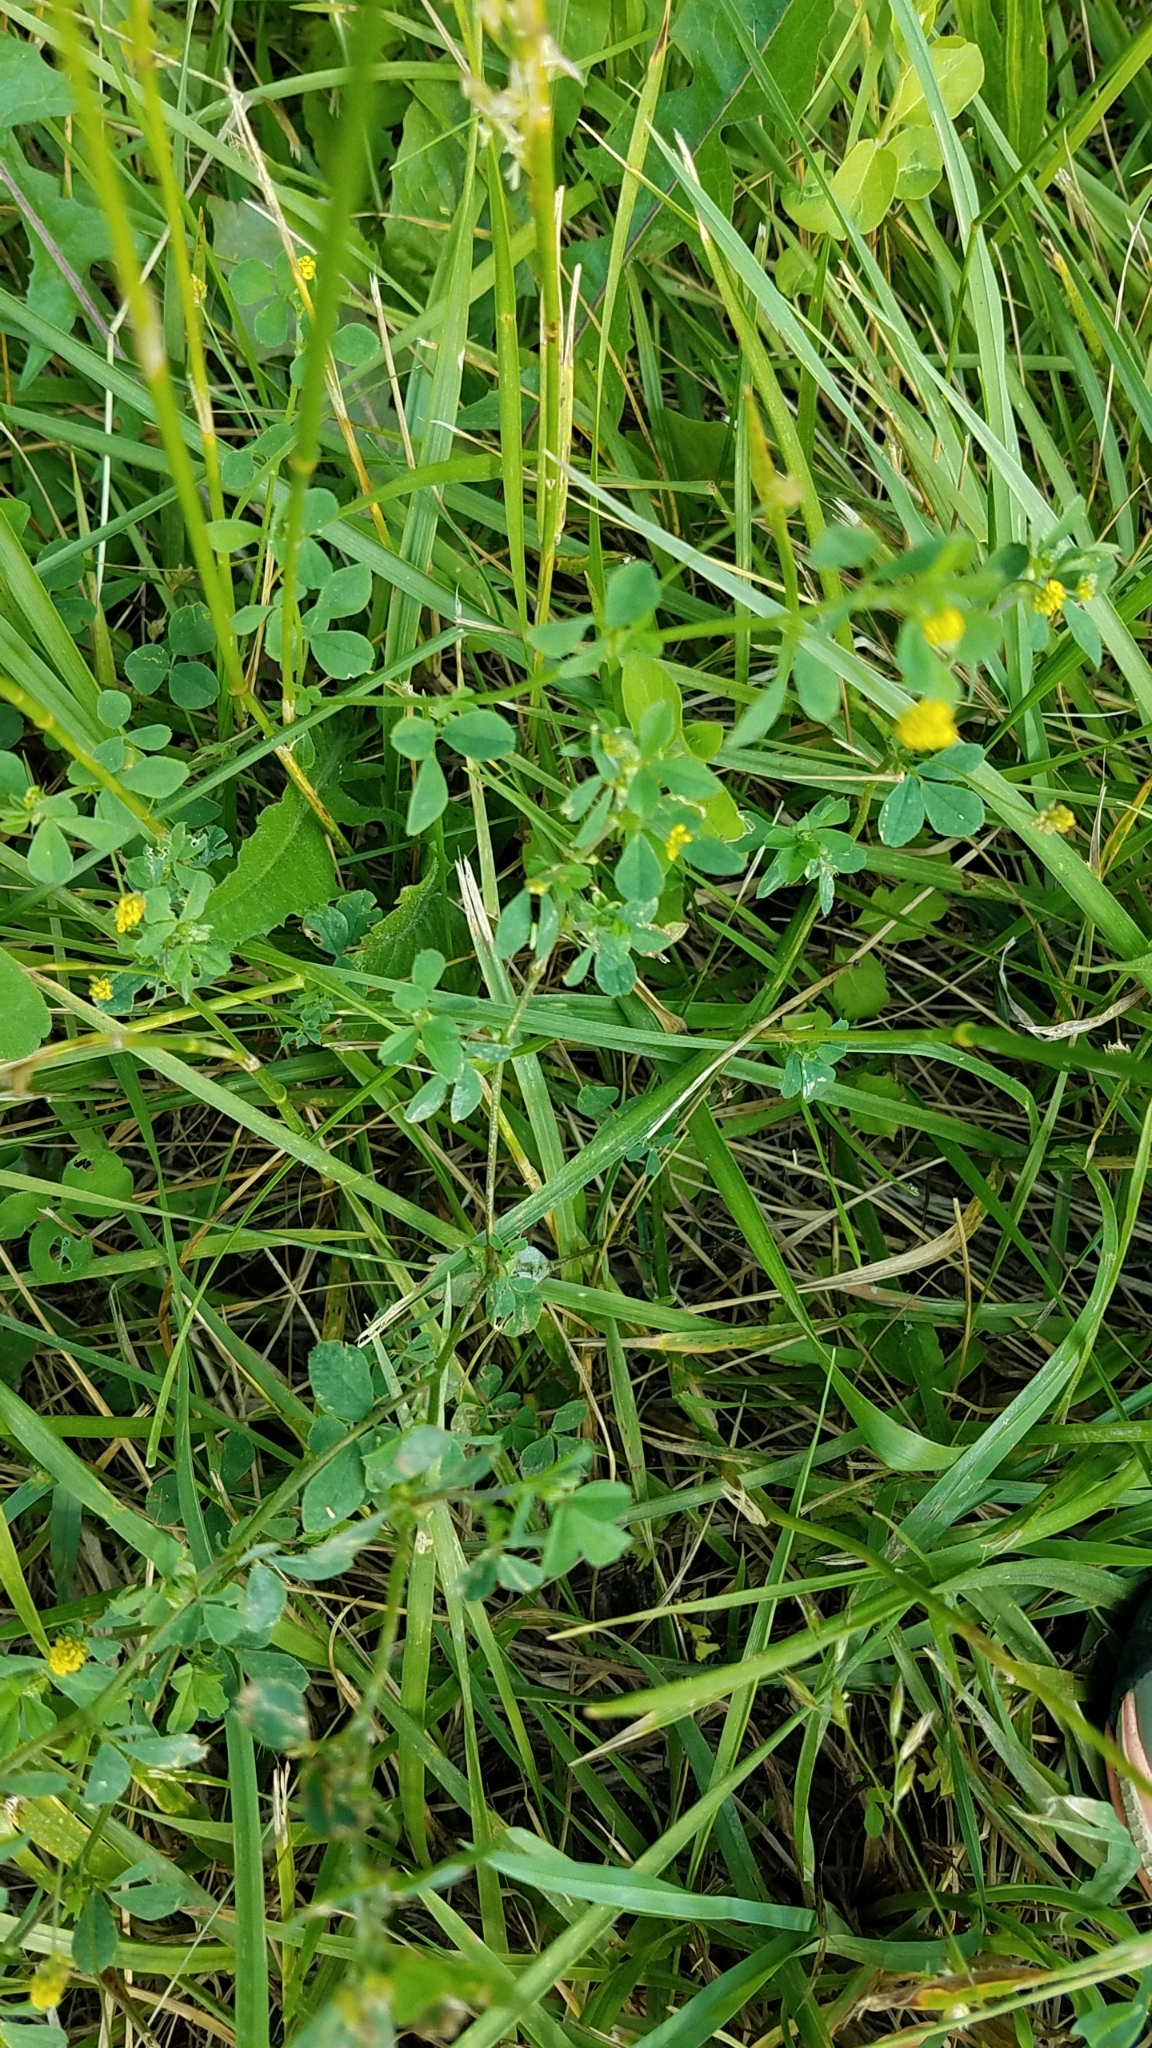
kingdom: Plantae
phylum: Tracheophyta
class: Magnoliopsida
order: Fabales
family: Fabaceae
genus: Medicago
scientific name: Medicago lupulina
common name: Black medick
